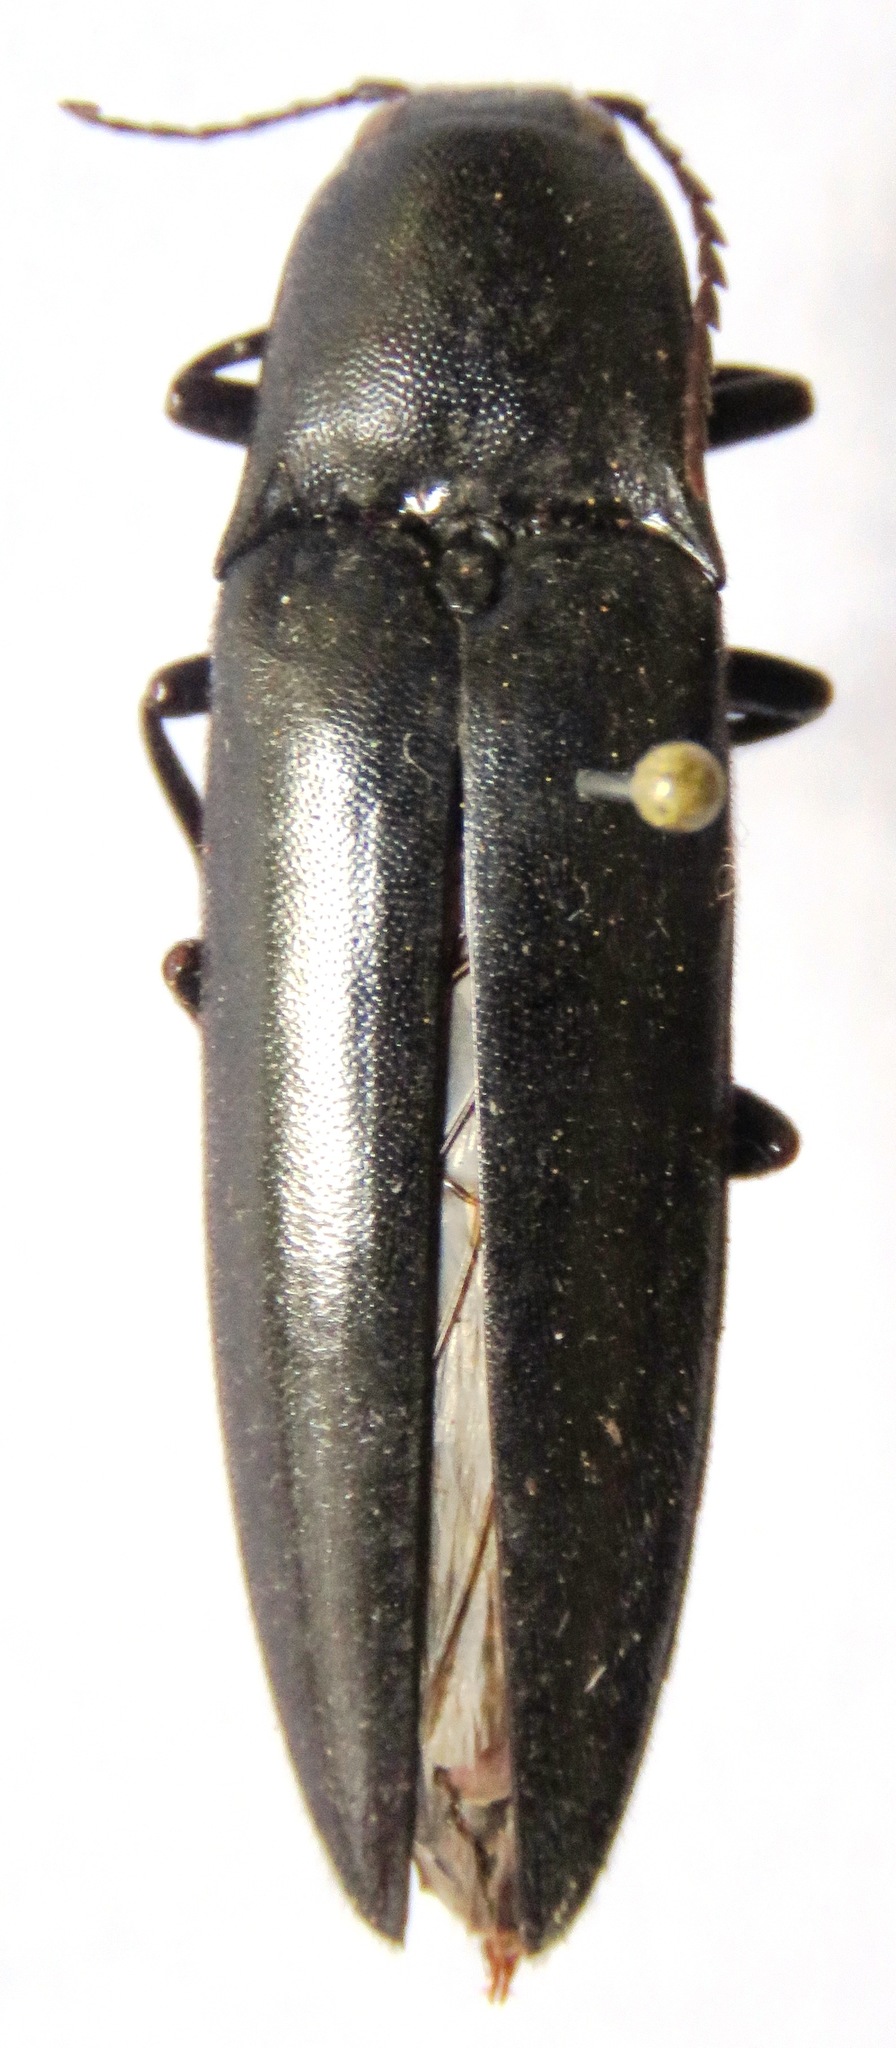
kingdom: Animalia
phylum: Arthropoda
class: Insecta
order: Coleoptera
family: Elateridae
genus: Orthostethus
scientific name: Orthostethus
